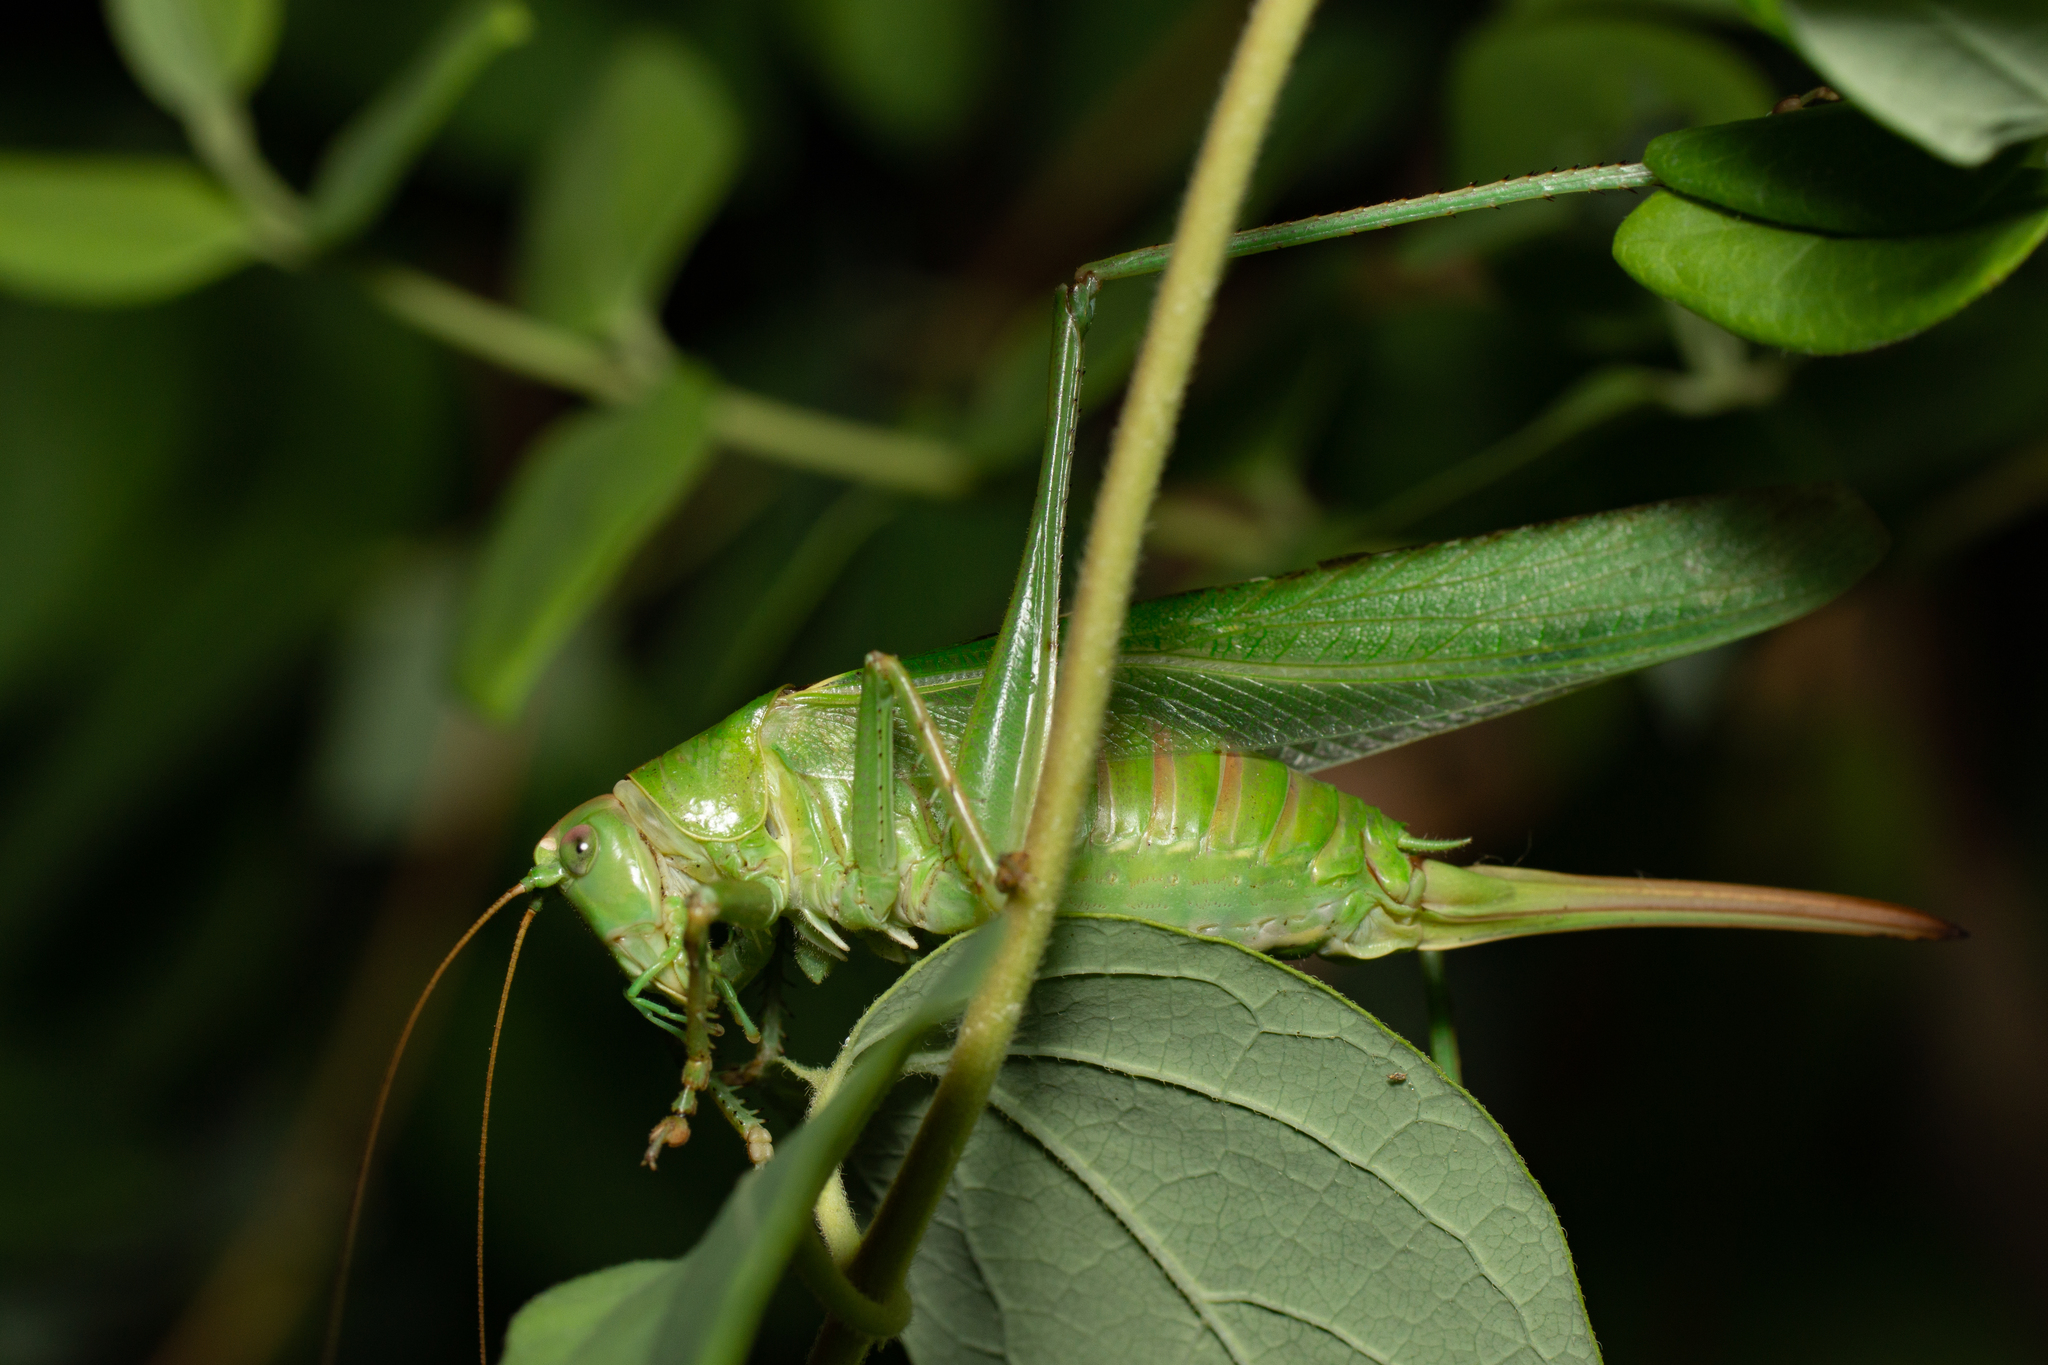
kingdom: Animalia
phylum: Arthropoda
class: Insecta
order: Orthoptera
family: Tettigoniidae
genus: Tettigonia
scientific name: Tettigonia viridissima
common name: Great green bush-cricket
